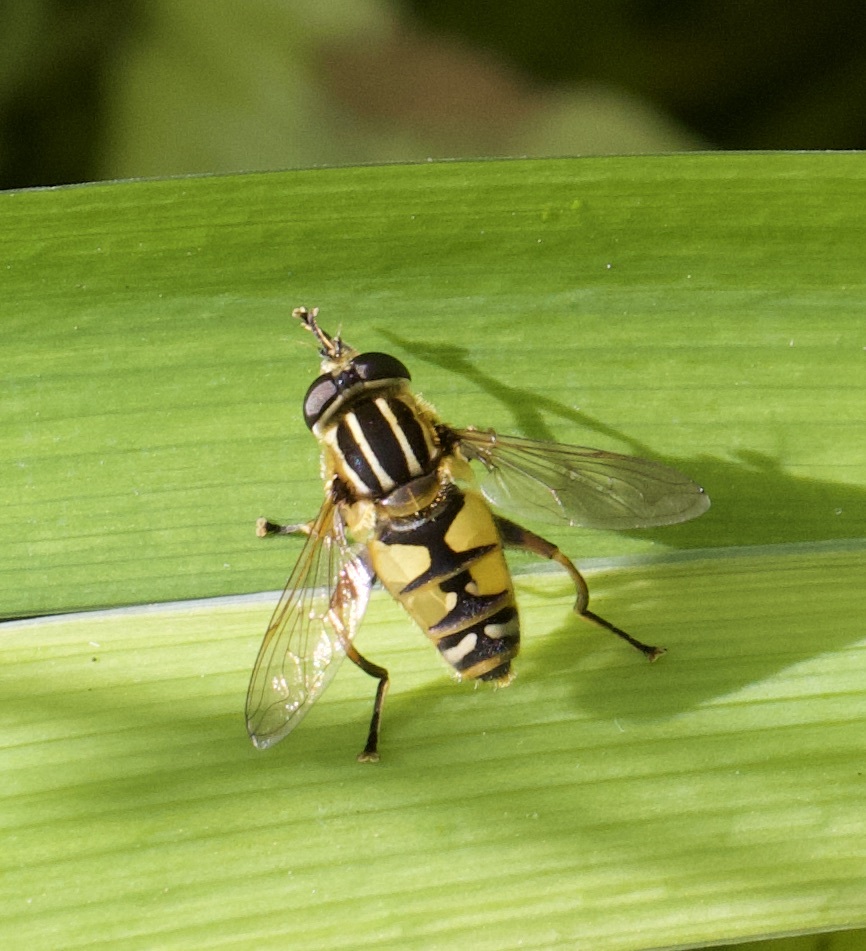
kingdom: Animalia
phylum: Arthropoda
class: Insecta
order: Diptera
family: Syrphidae
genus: Helophilus
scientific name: Helophilus pendulus
